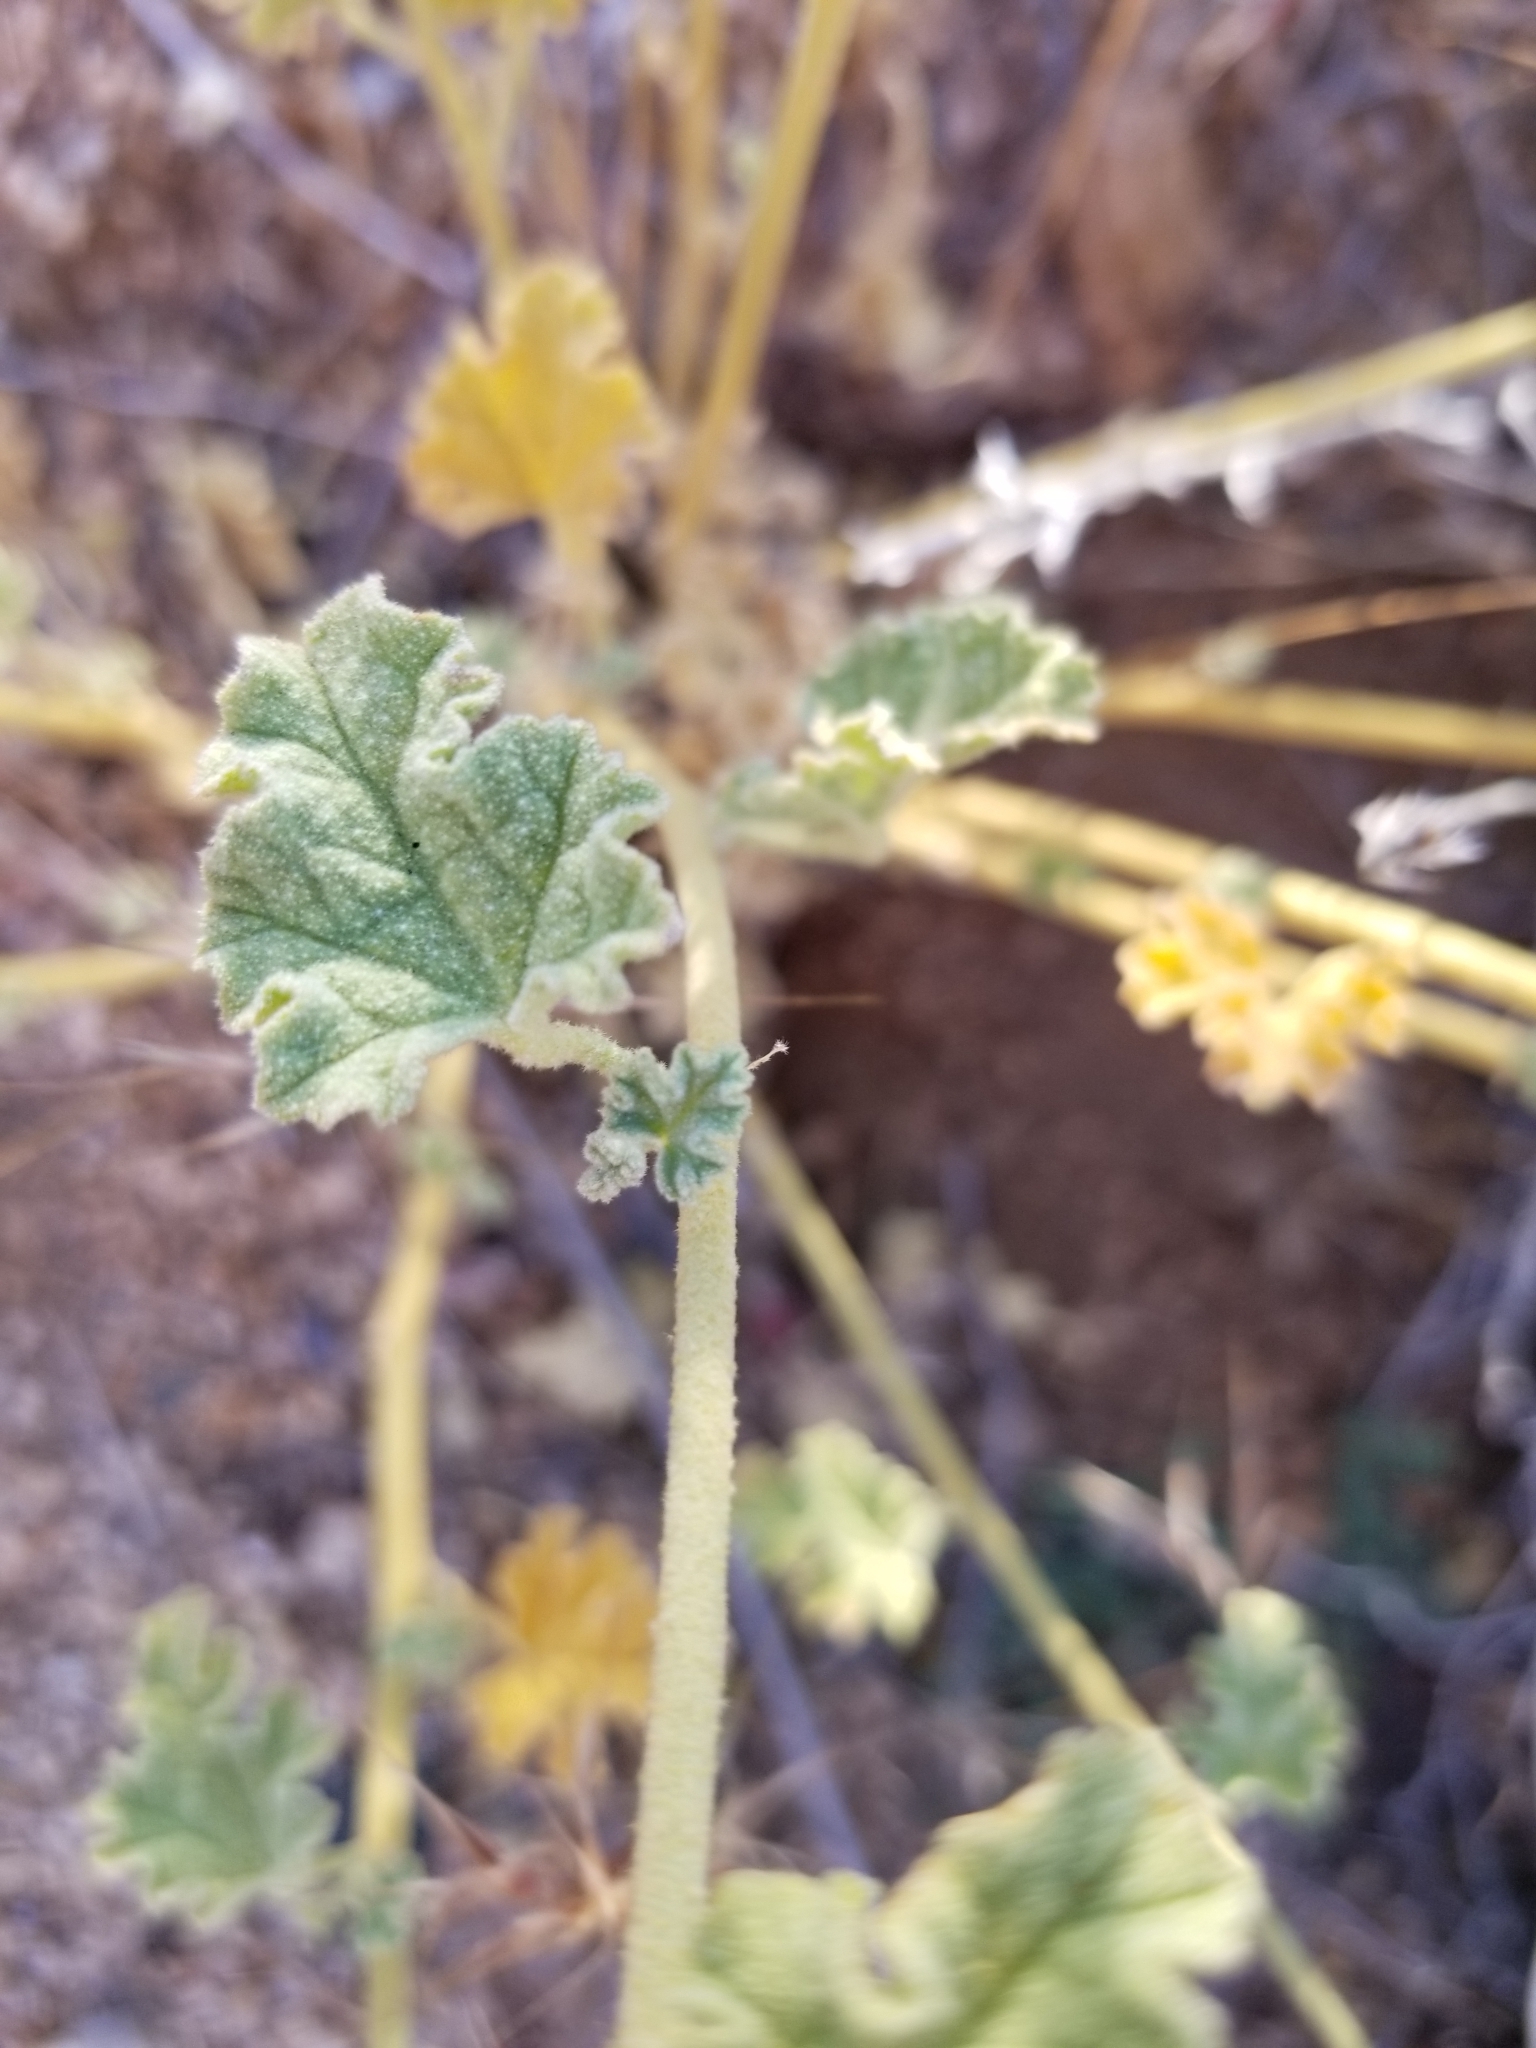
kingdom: Plantae
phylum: Tracheophyta
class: Magnoliopsida
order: Malvales
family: Malvaceae
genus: Sphaeralcea
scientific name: Sphaeralcea ambigua
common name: Apricot globe-mallow
